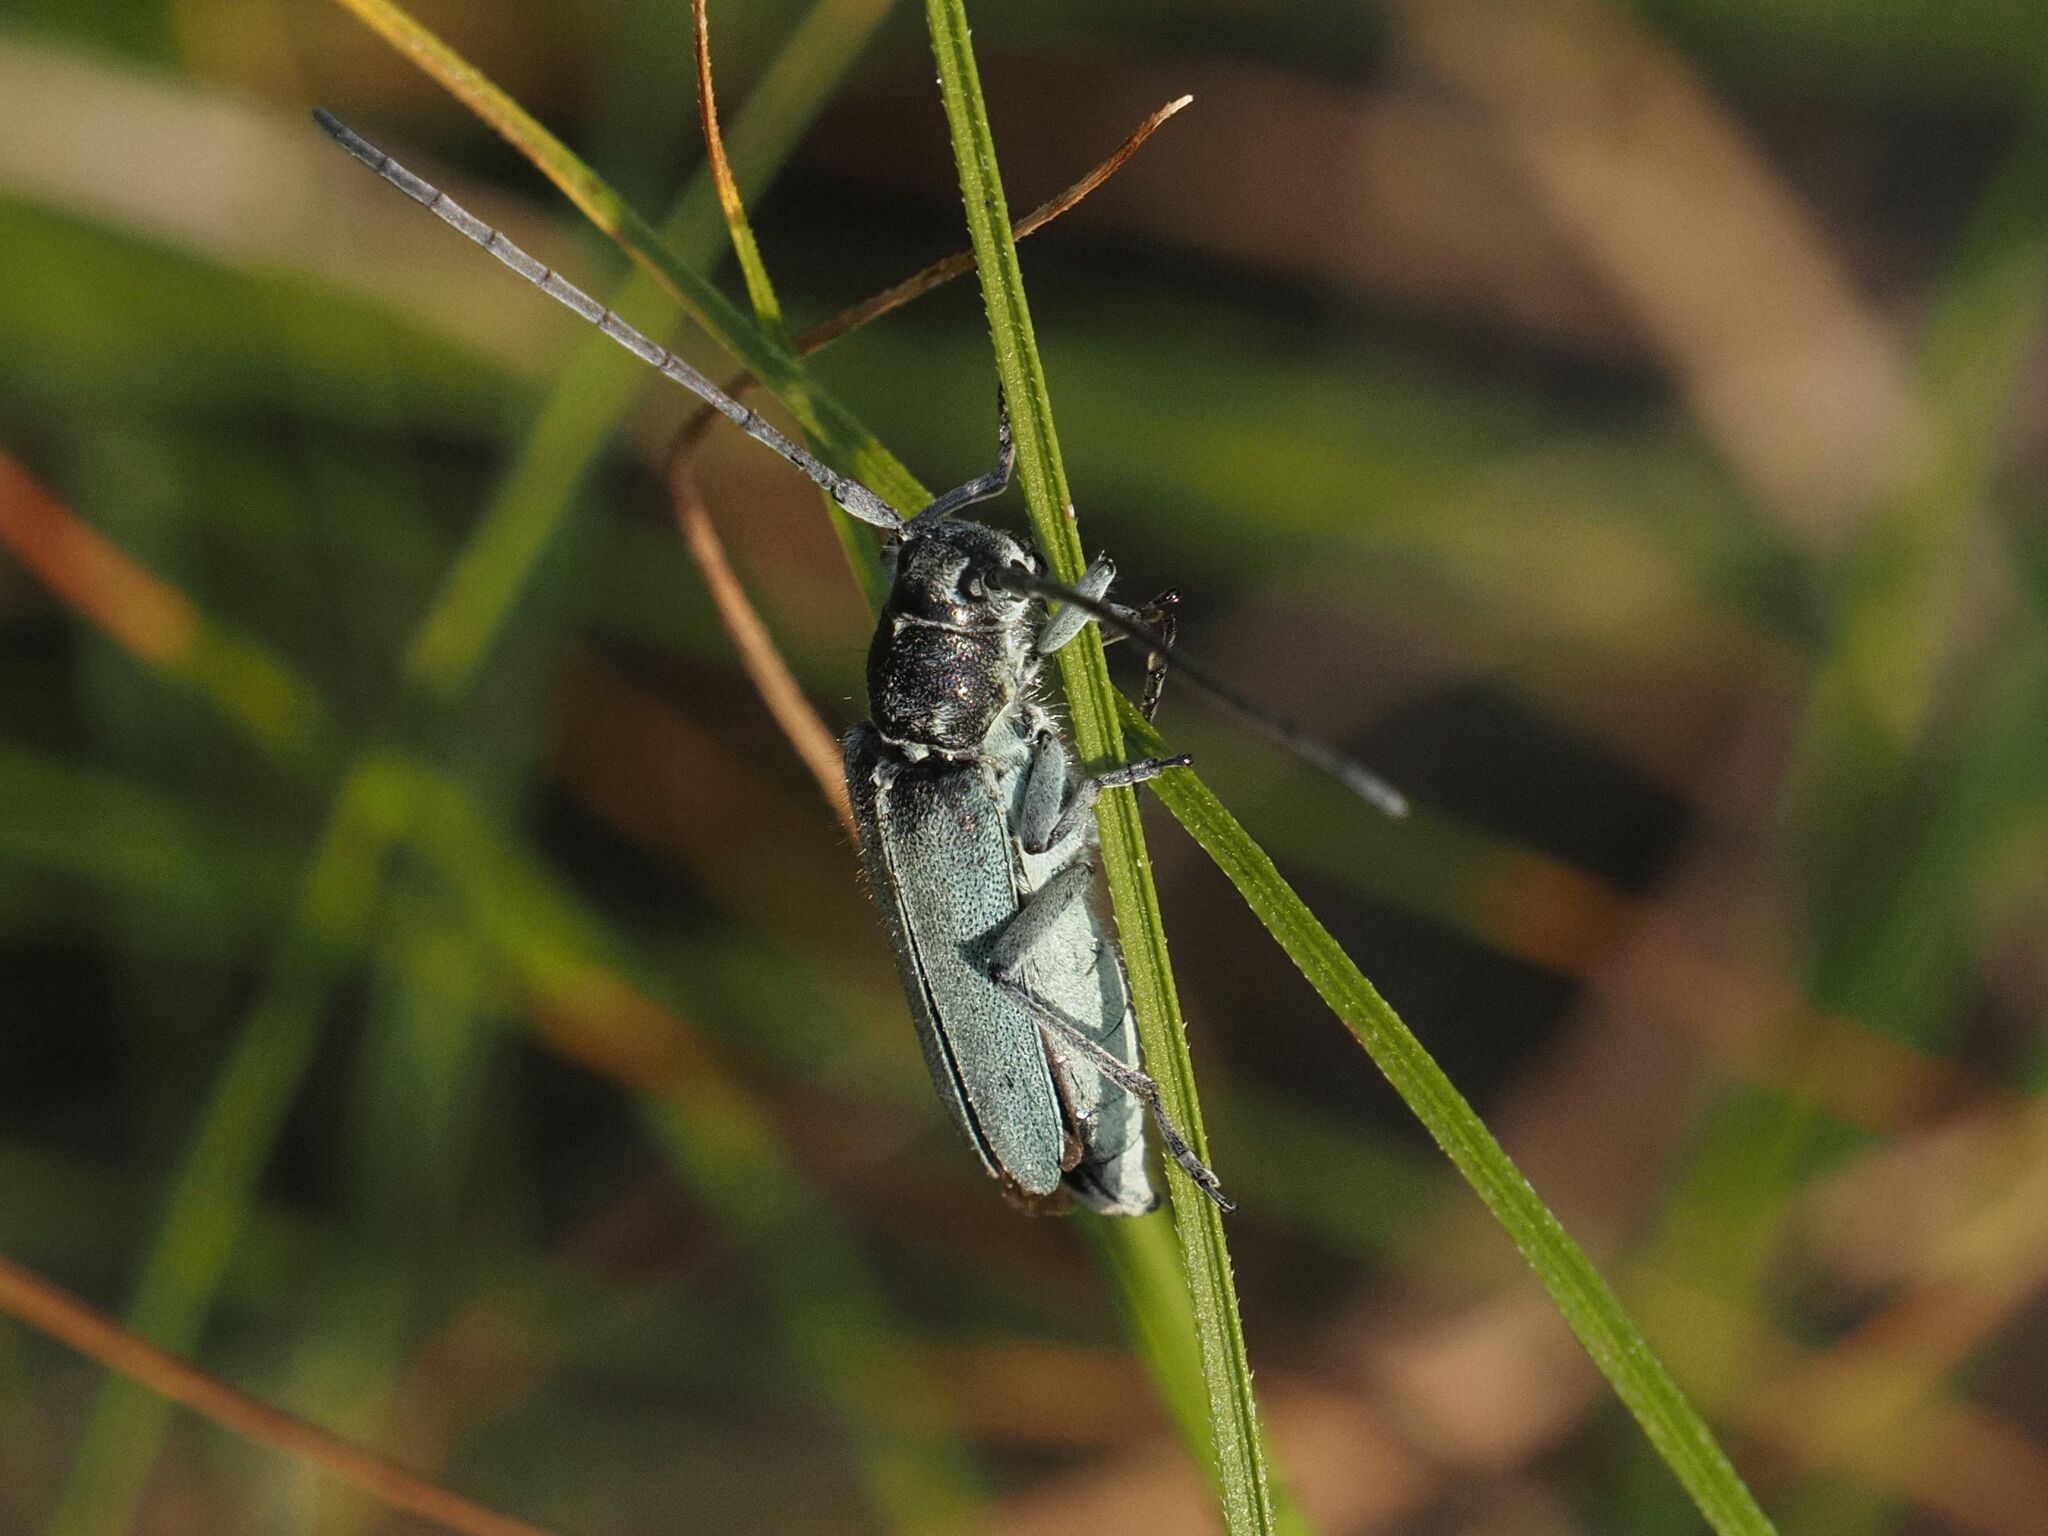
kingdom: Animalia
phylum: Arthropoda
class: Insecta
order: Coleoptera
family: Cerambycidae
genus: Phytoecia
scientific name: Phytoecia coerulescens
